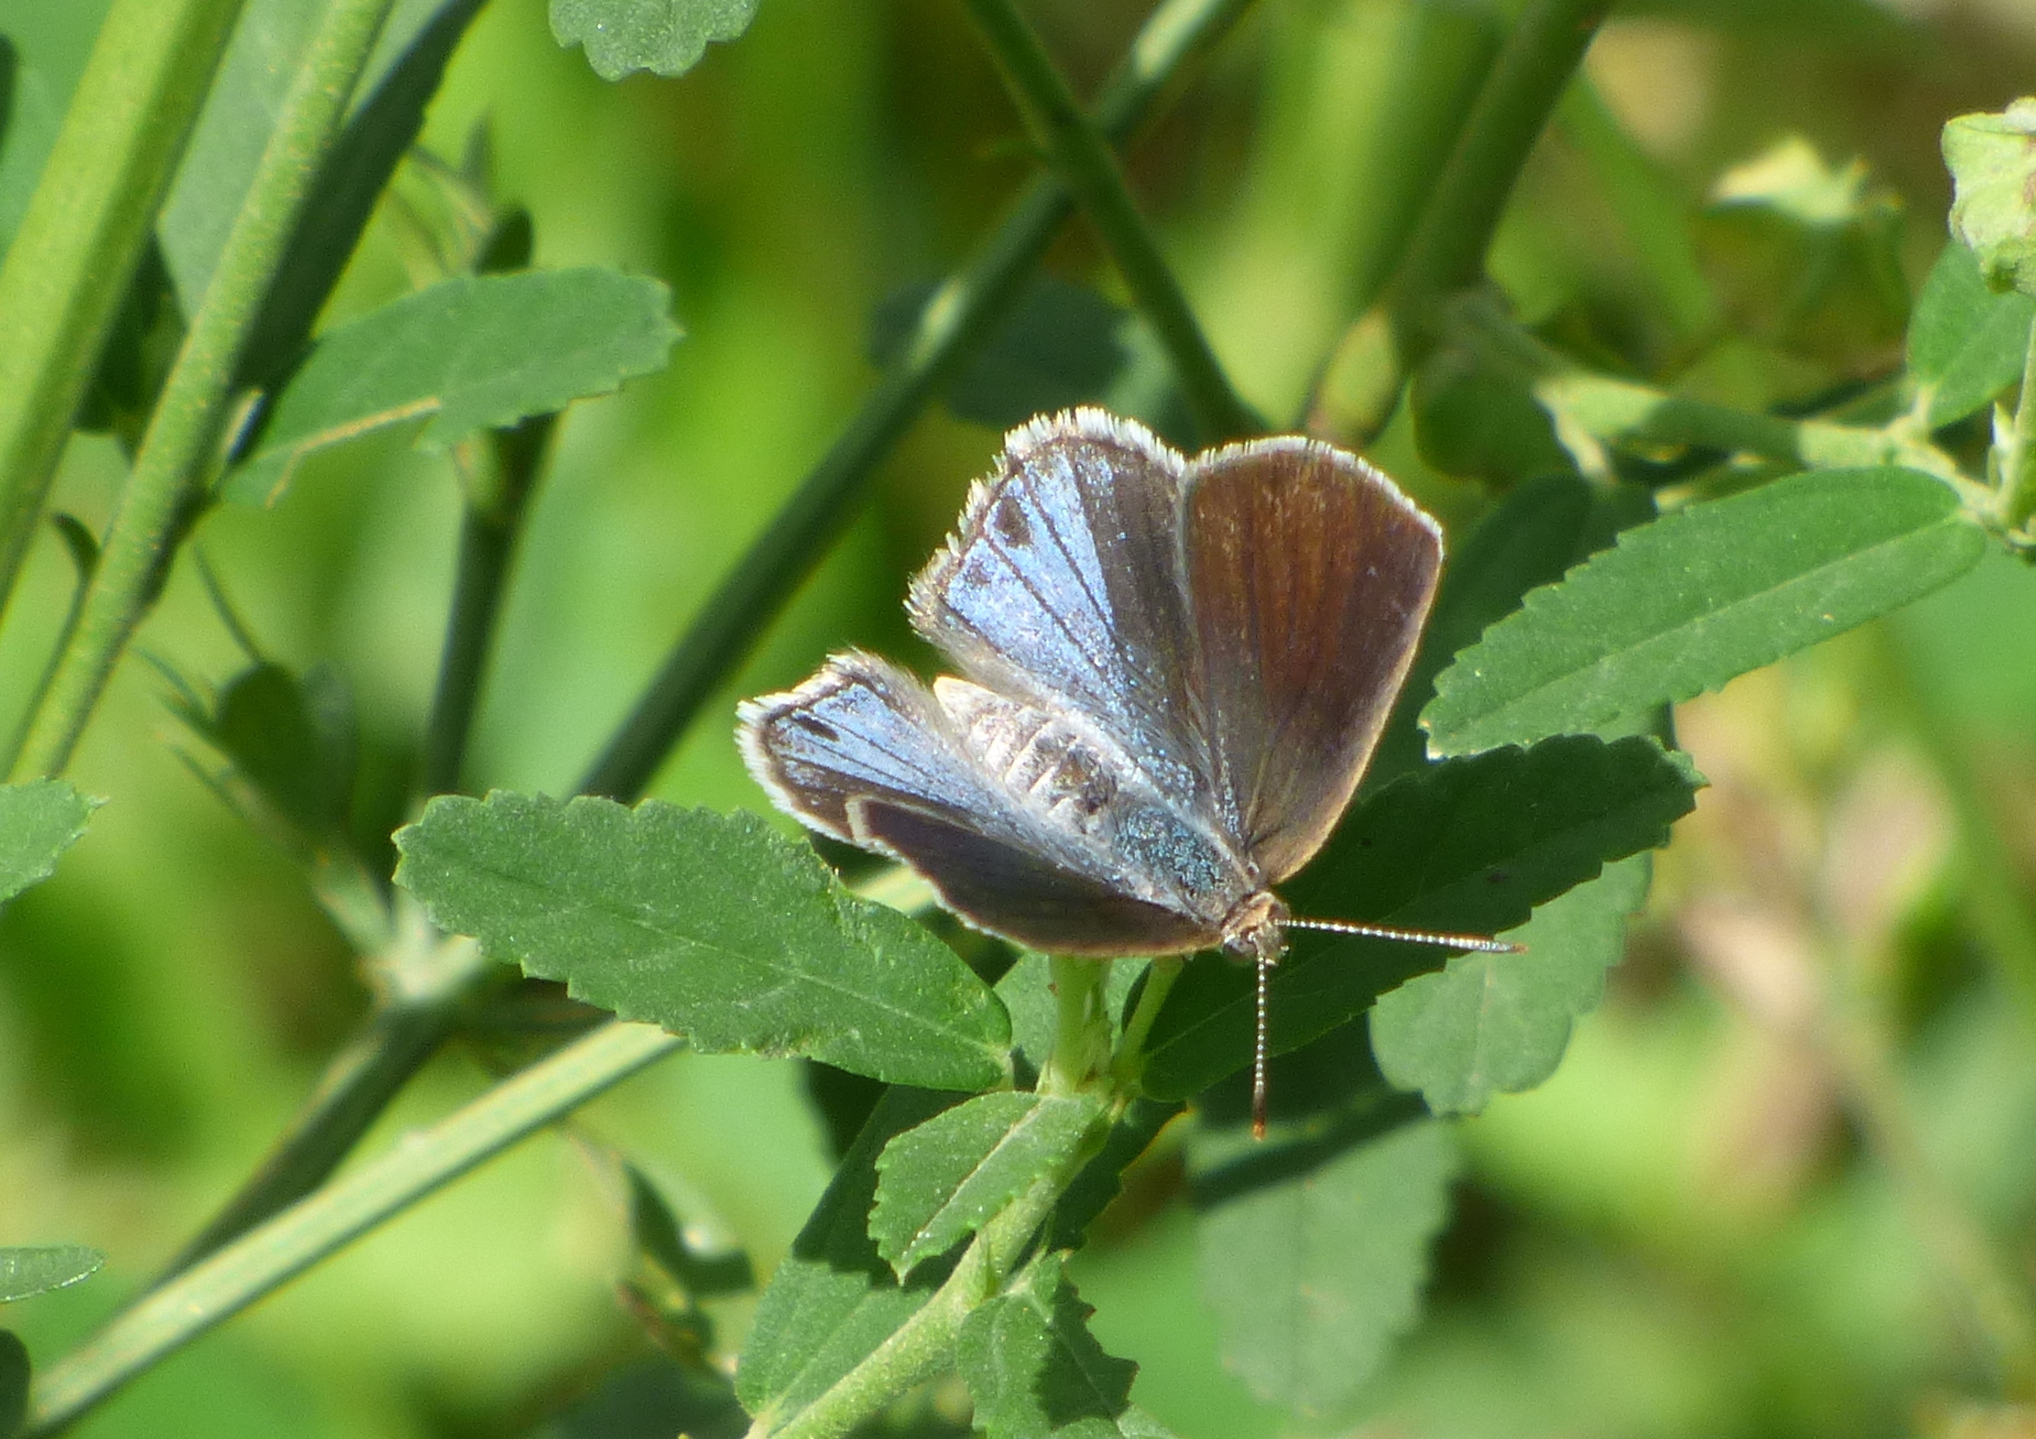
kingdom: Animalia
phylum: Arthropoda
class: Insecta
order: Lepidoptera
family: Lycaenidae
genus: Strymon
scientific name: Strymon bazochii
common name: Lantana scrub-hairstreak
